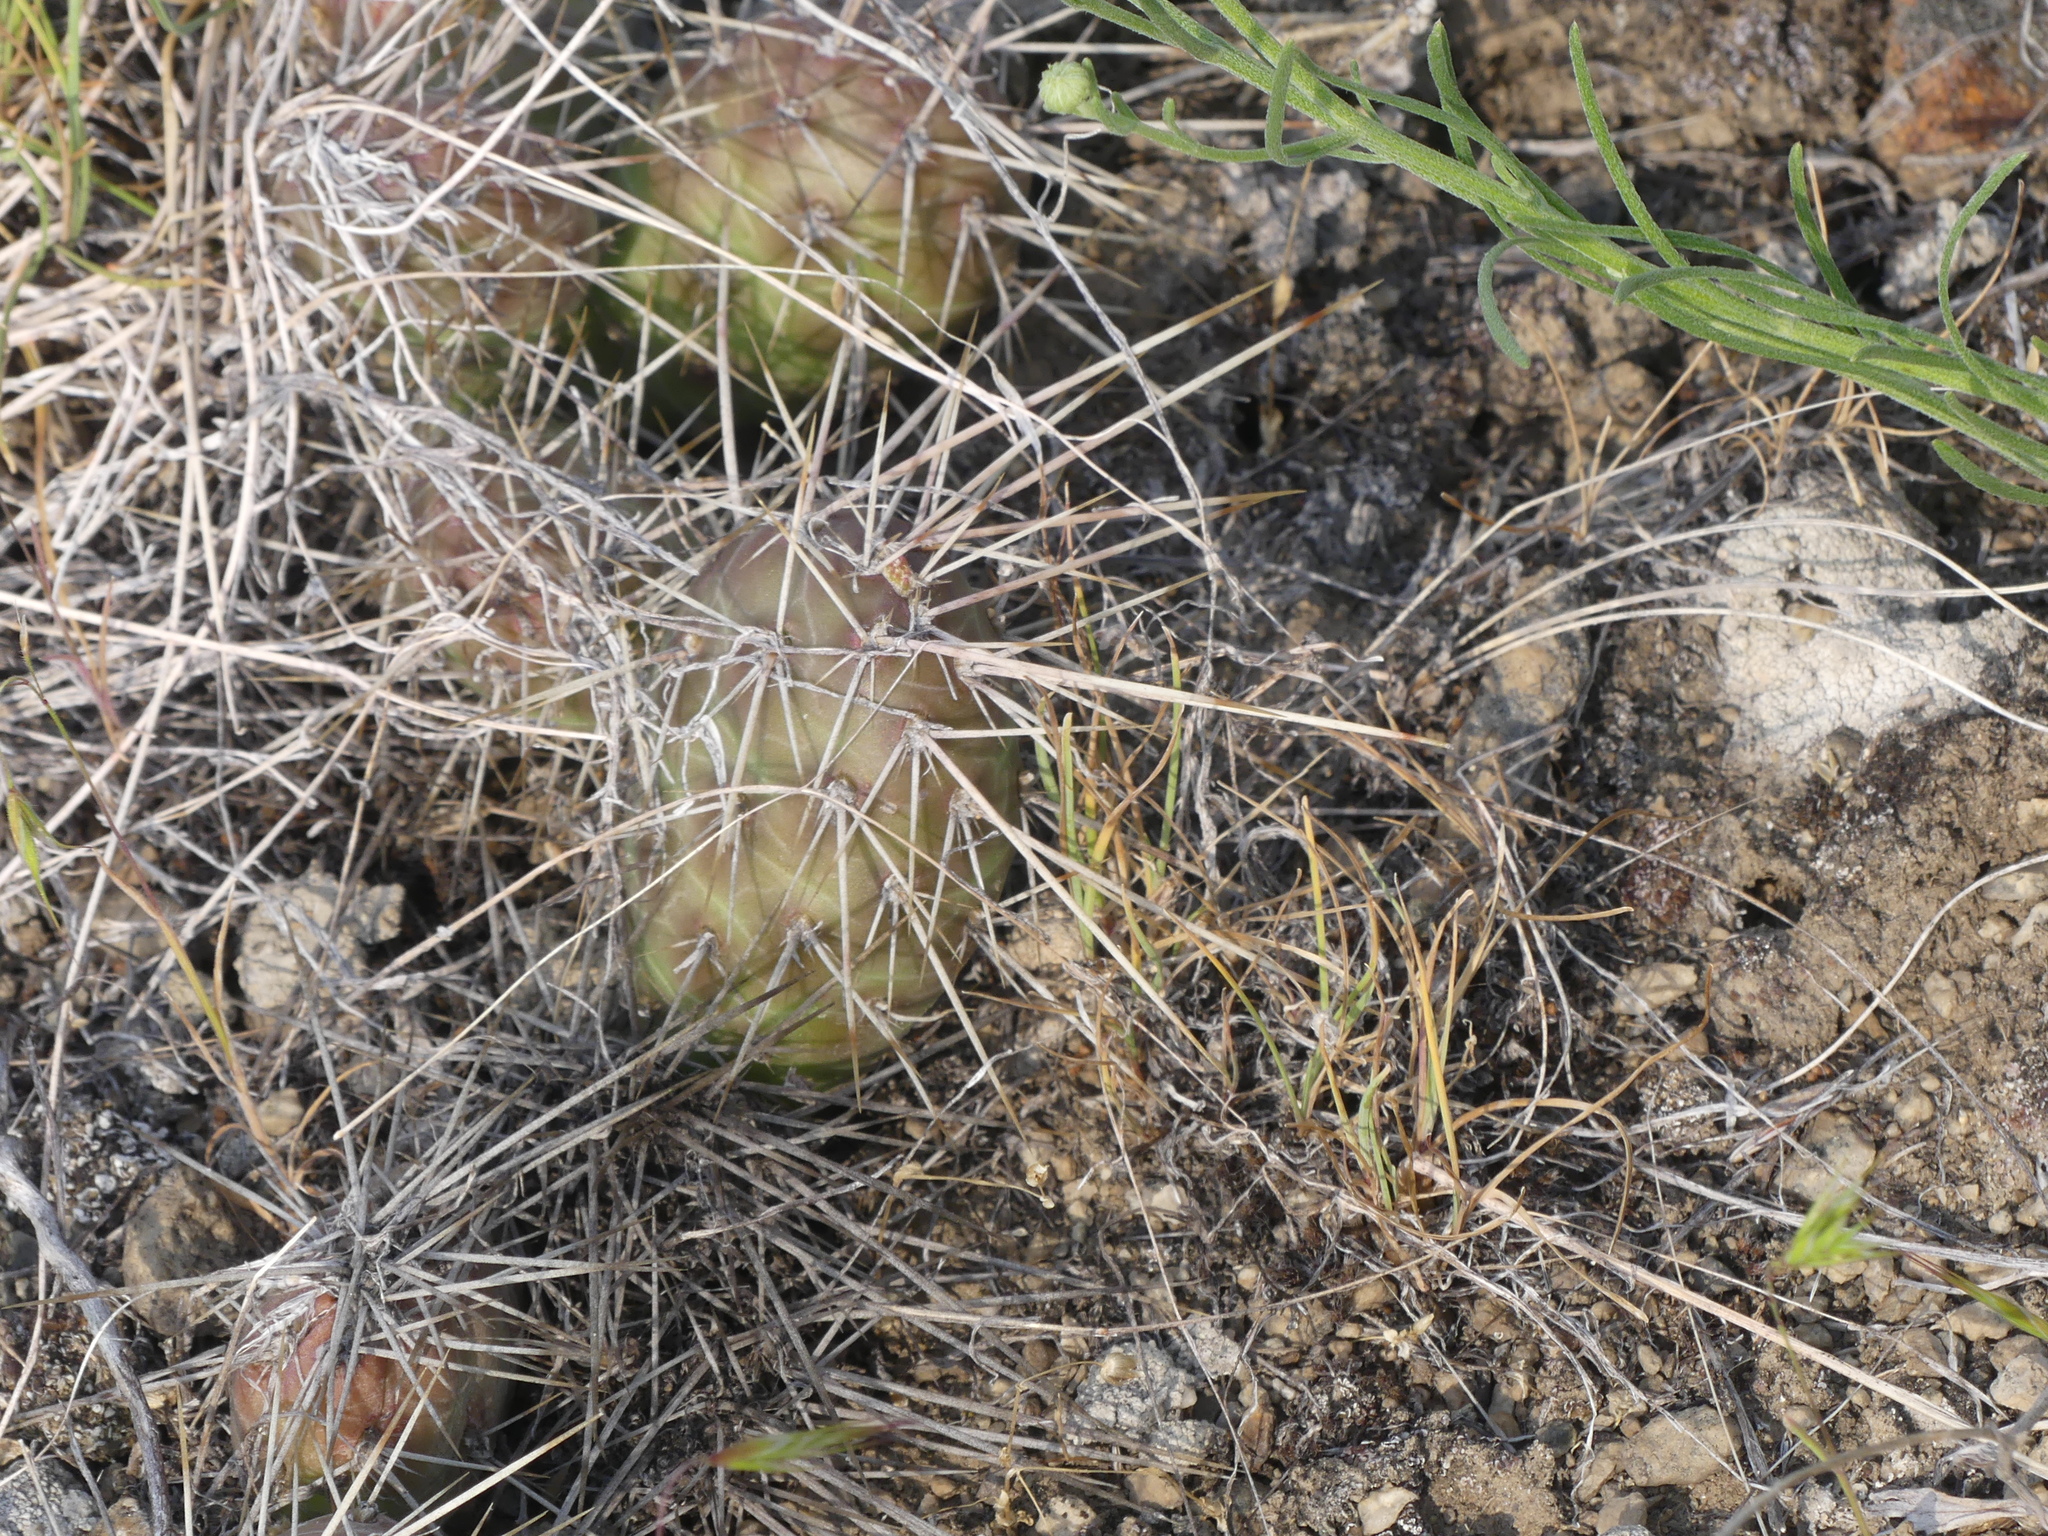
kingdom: Plantae
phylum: Tracheophyta
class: Magnoliopsida
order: Caryophyllales
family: Cactaceae
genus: Opuntia
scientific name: Opuntia fragilis
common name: Brittle cactus
